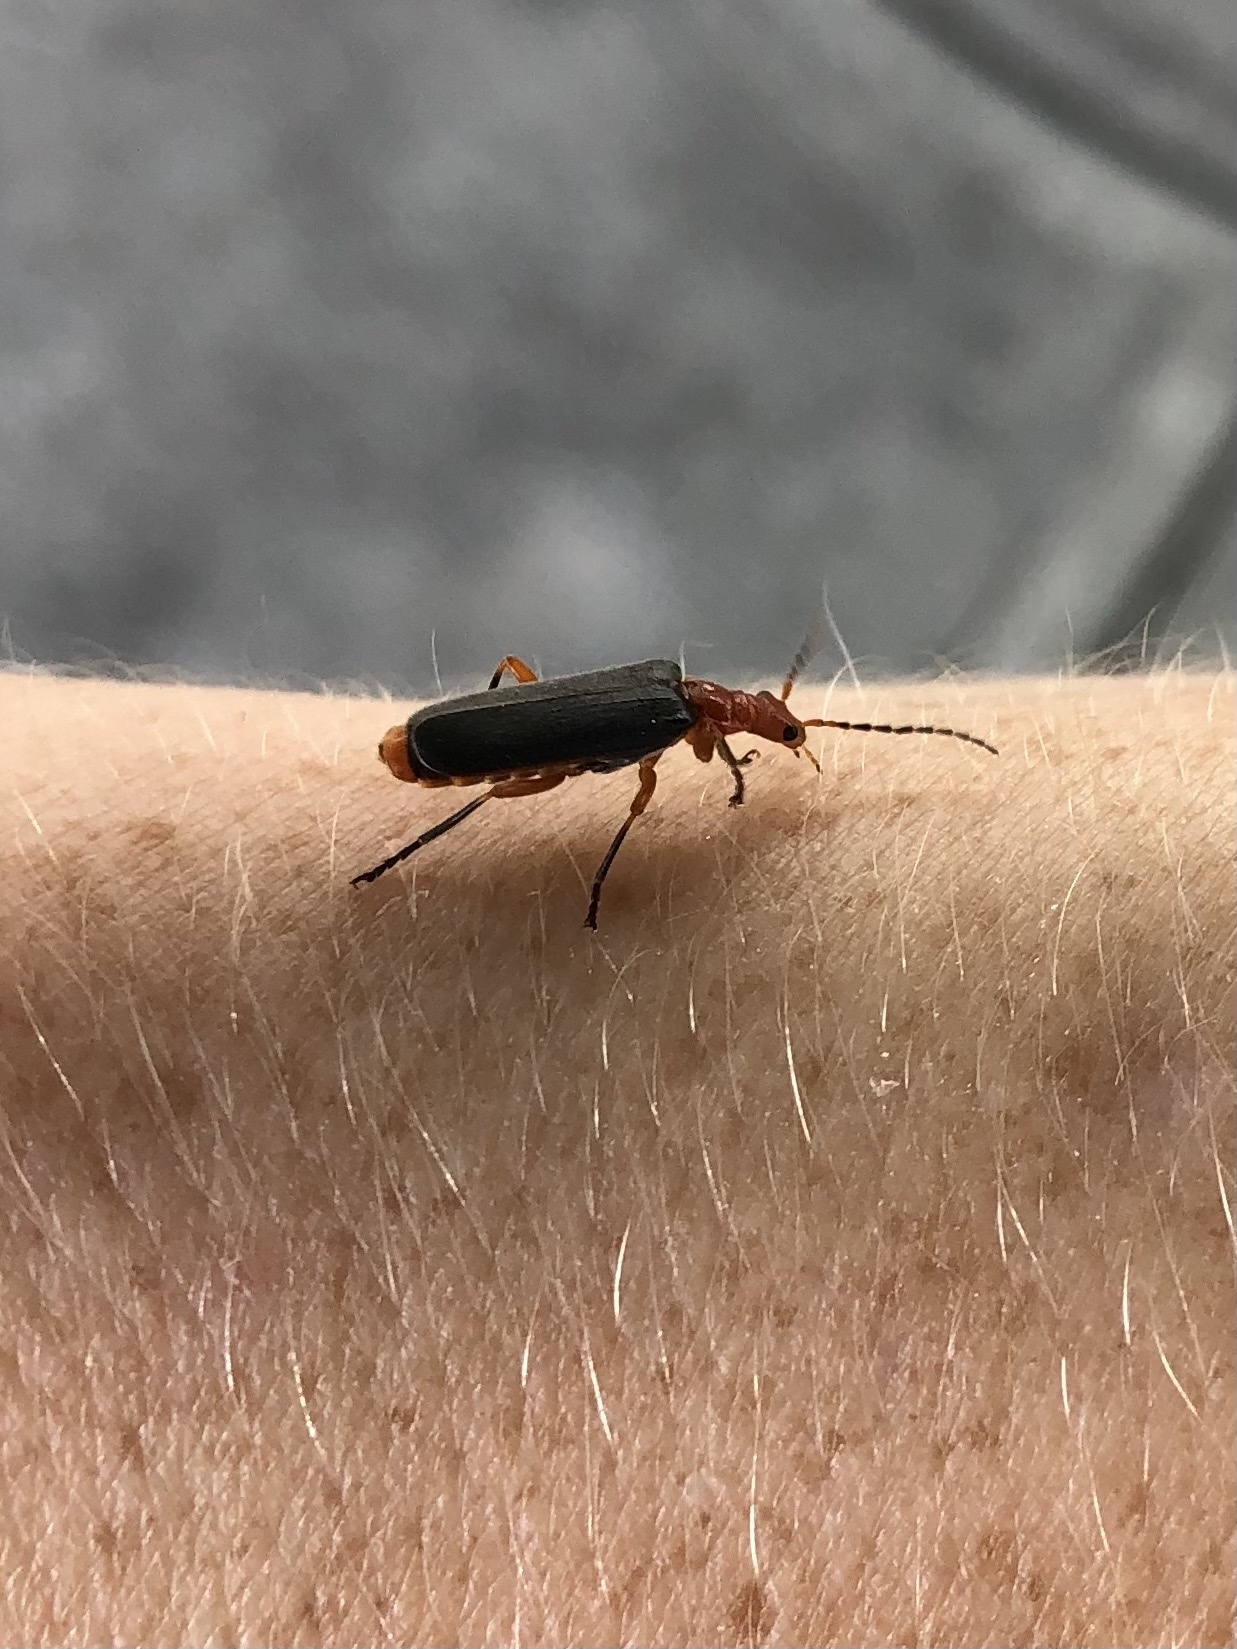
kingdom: Animalia
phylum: Arthropoda
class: Insecta
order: Coleoptera
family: Cantharidae
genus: Podabrus
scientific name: Podabrus tomentosus
